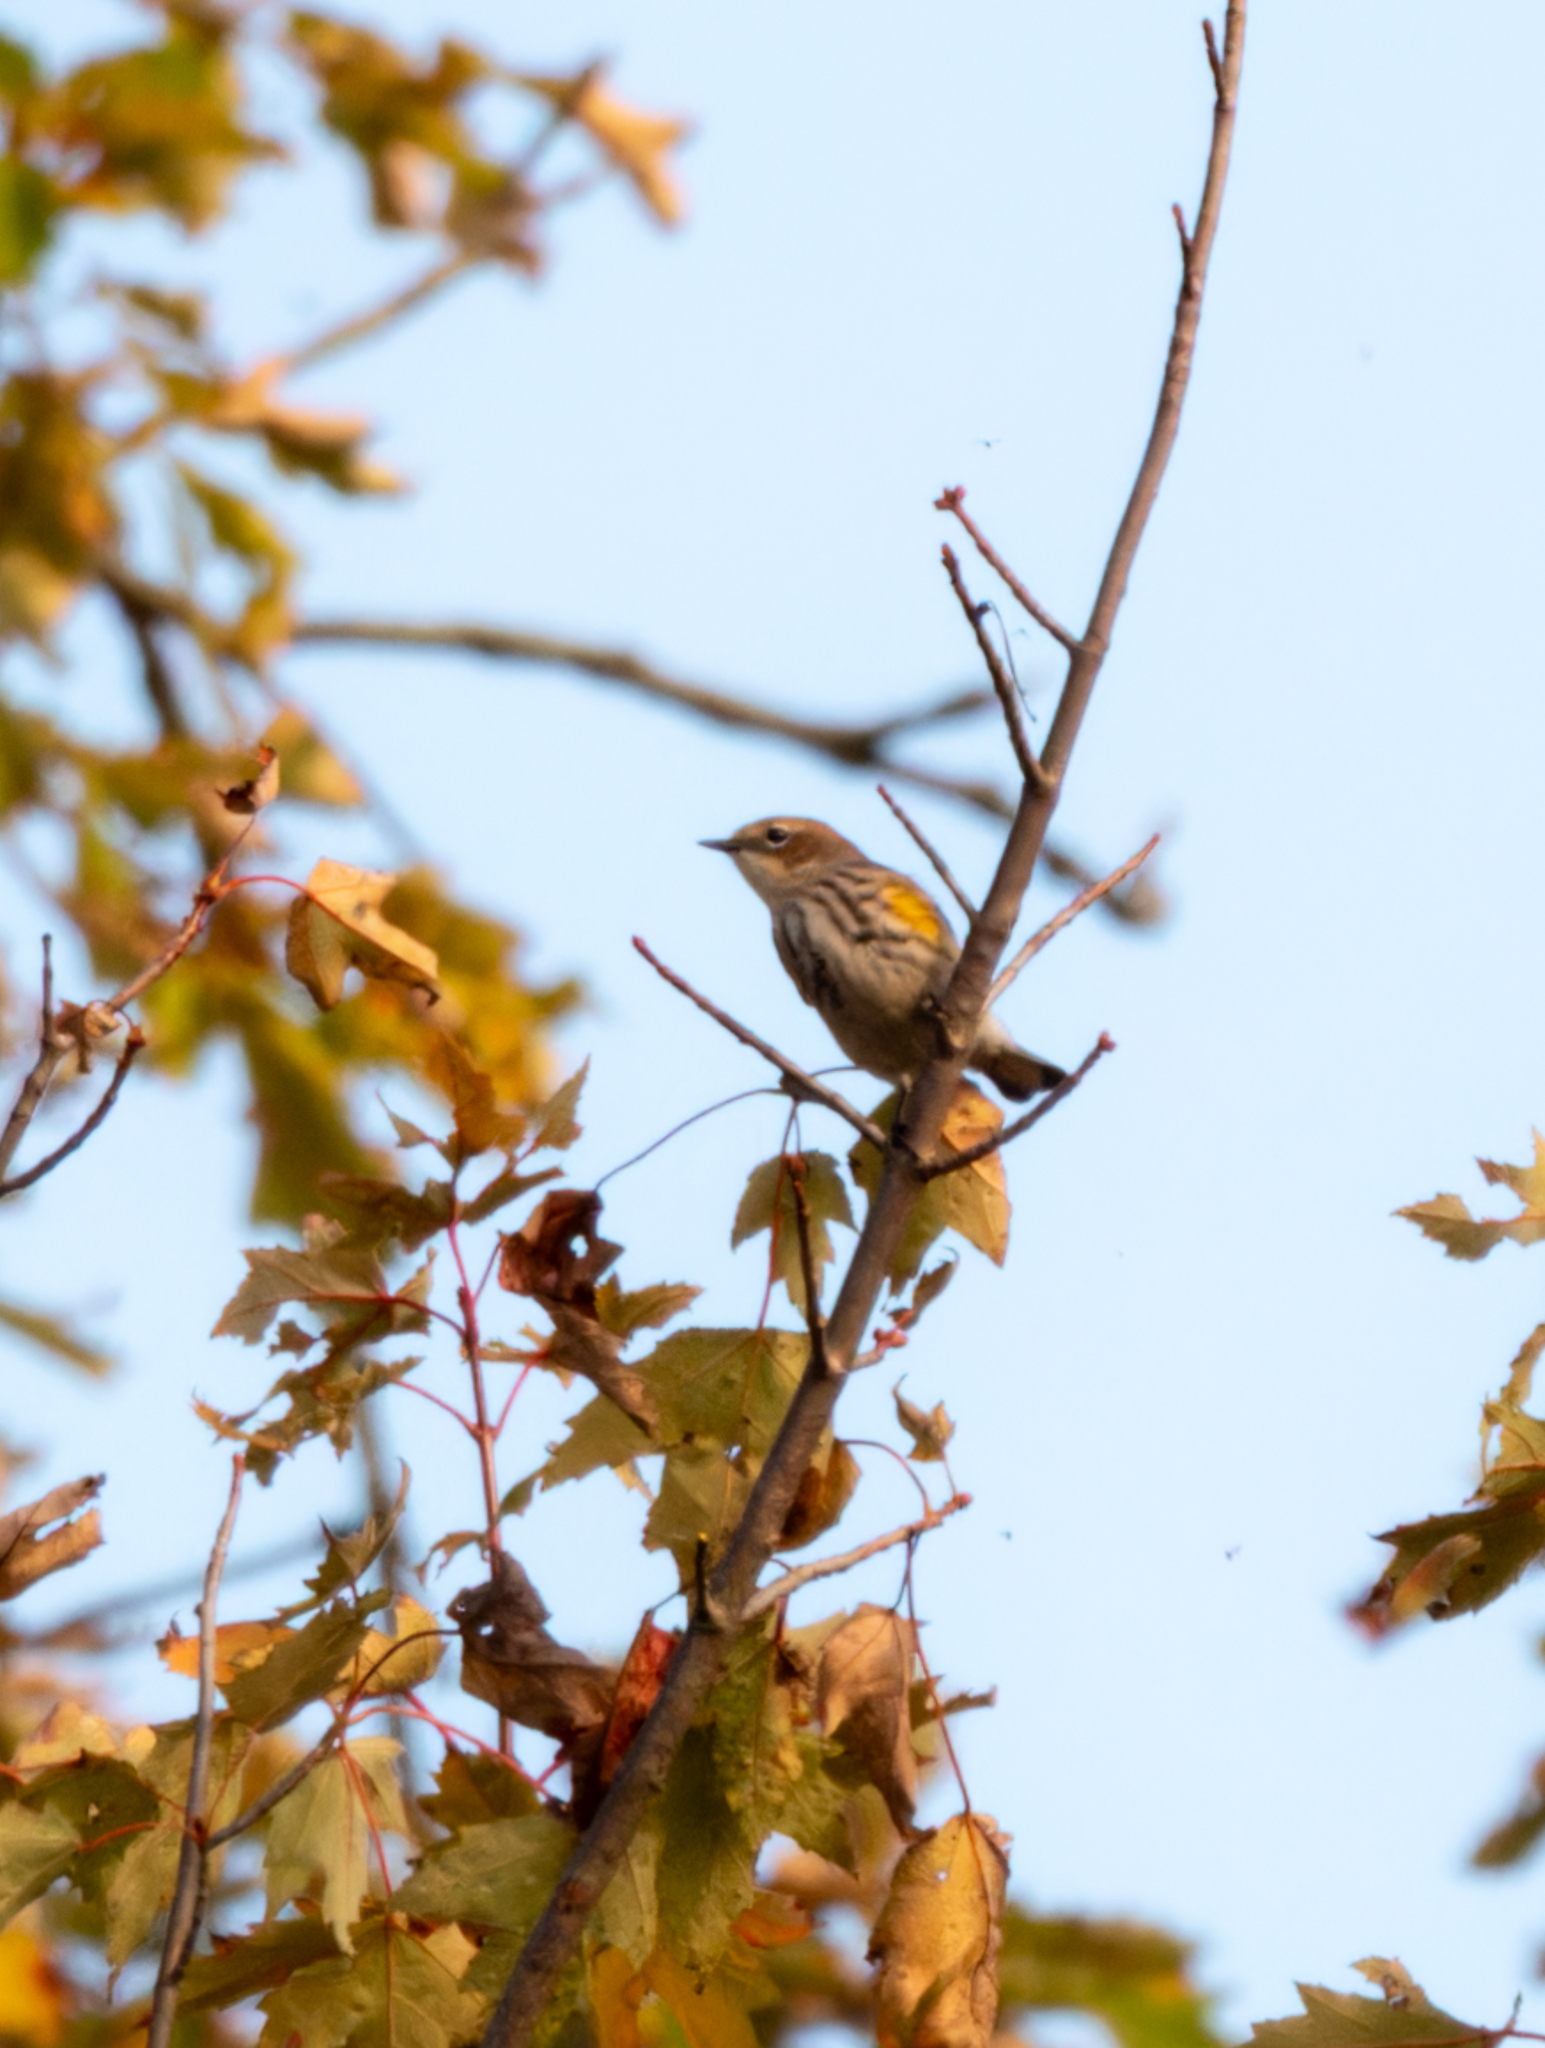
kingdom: Animalia
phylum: Chordata
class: Aves
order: Passeriformes
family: Parulidae
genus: Setophaga
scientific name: Setophaga coronata
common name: Myrtle warbler
